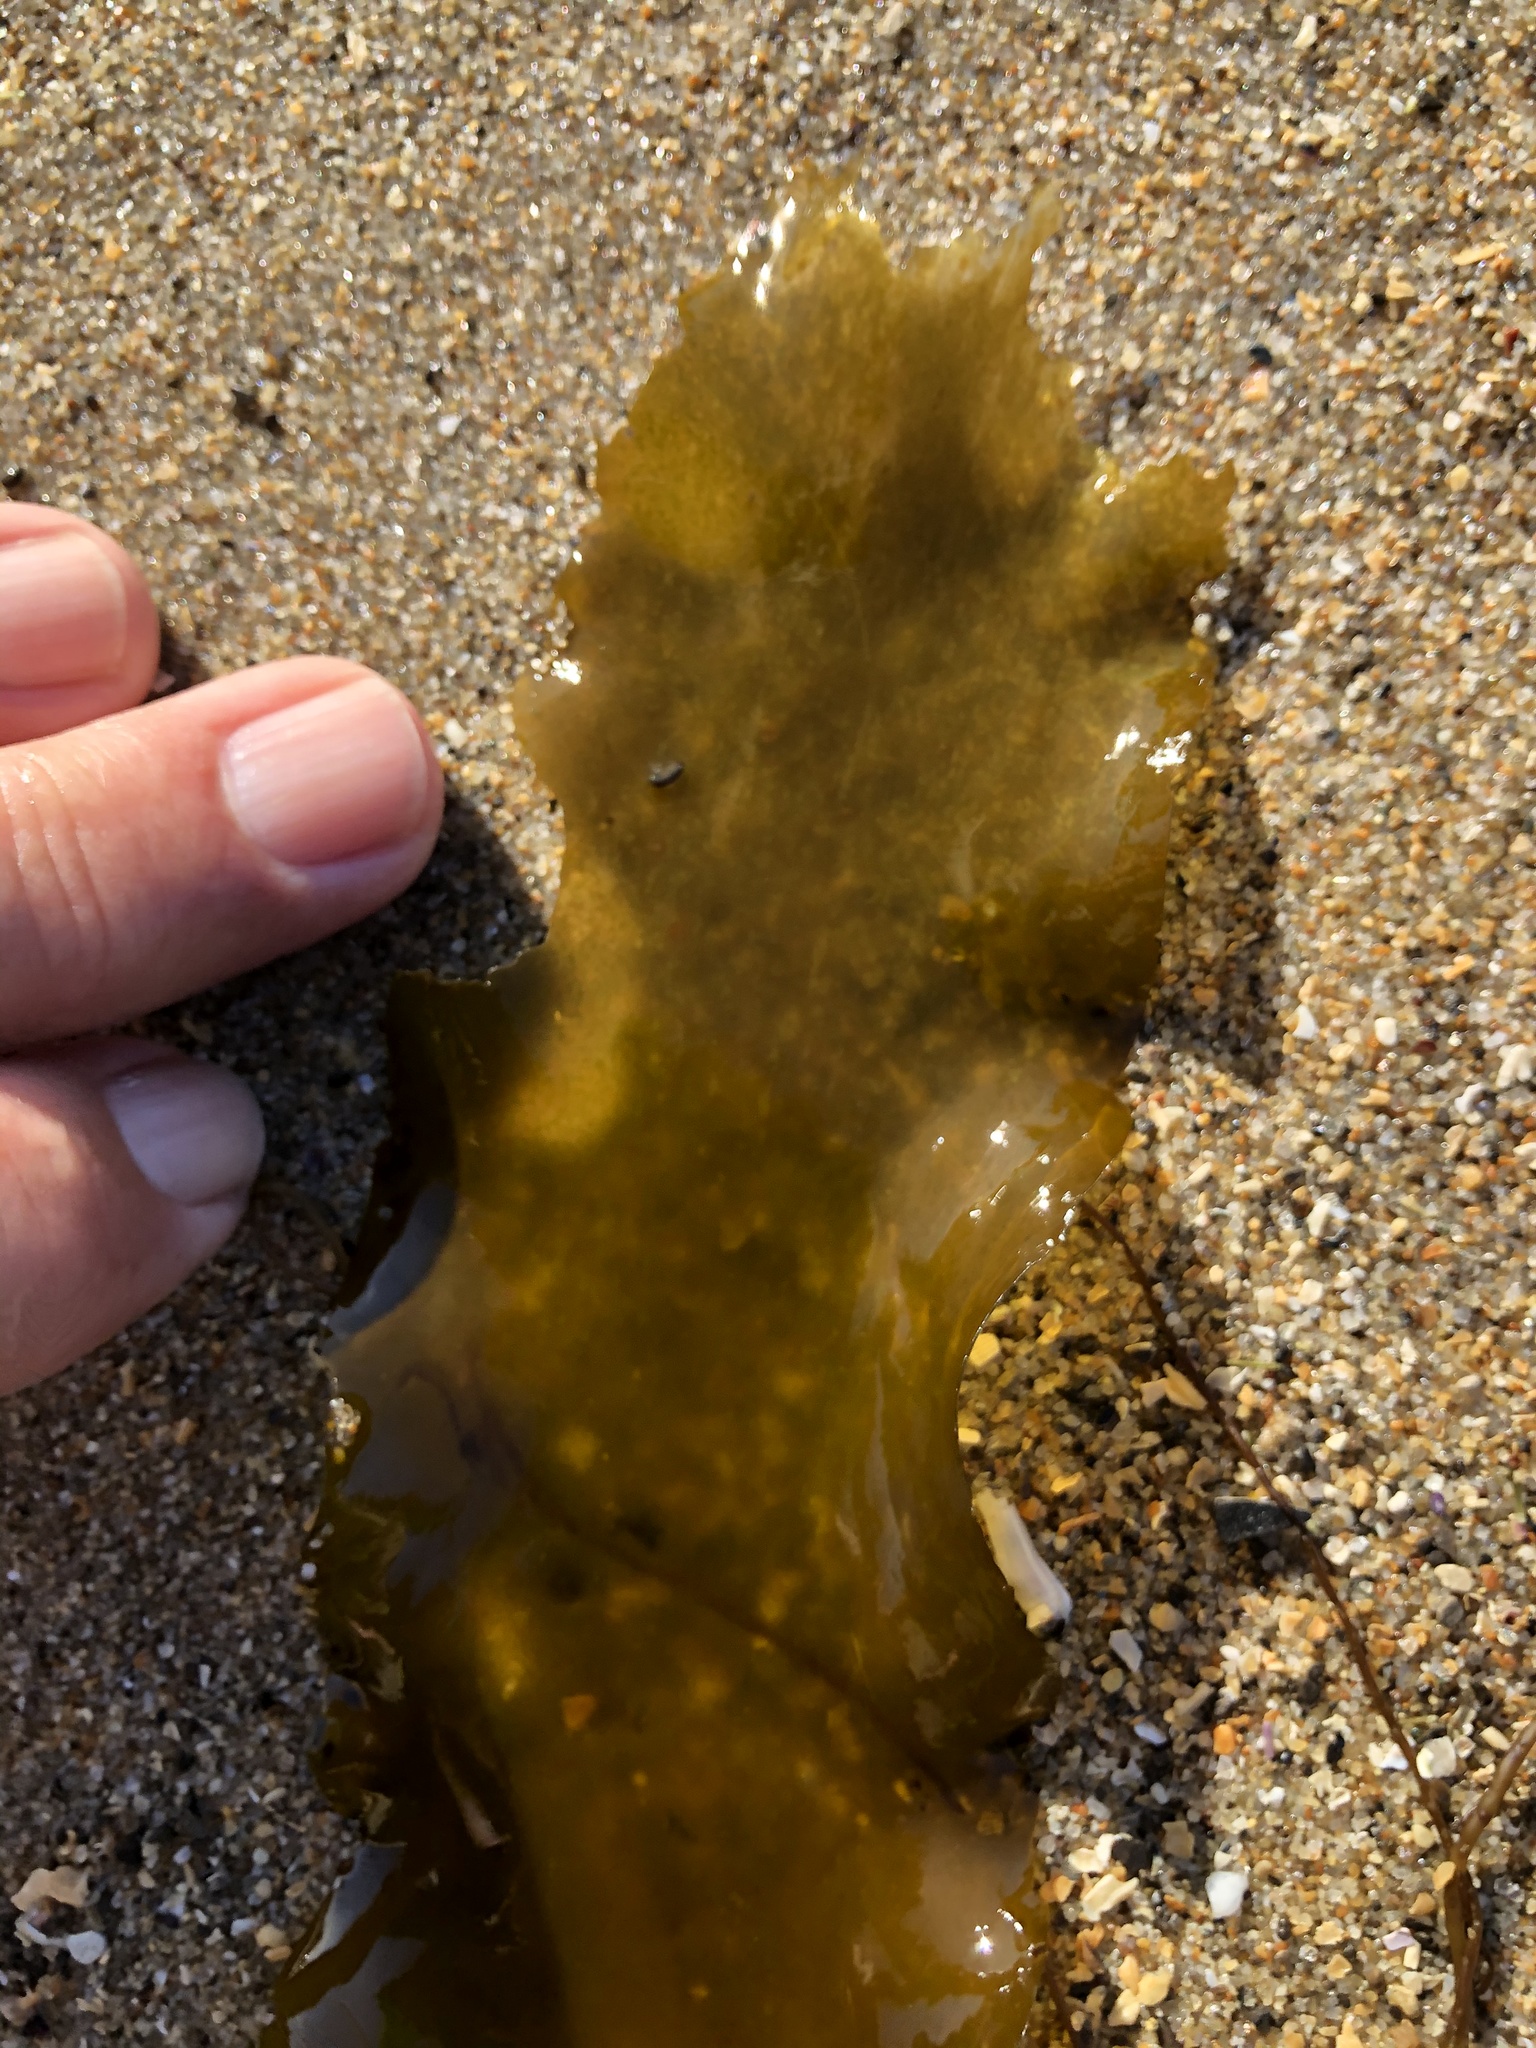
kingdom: Chromista
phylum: Ochrophyta
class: Phaeophyceae
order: Laminariales
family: Lessoniaceae
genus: Egregia
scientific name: Egregia menziesii
